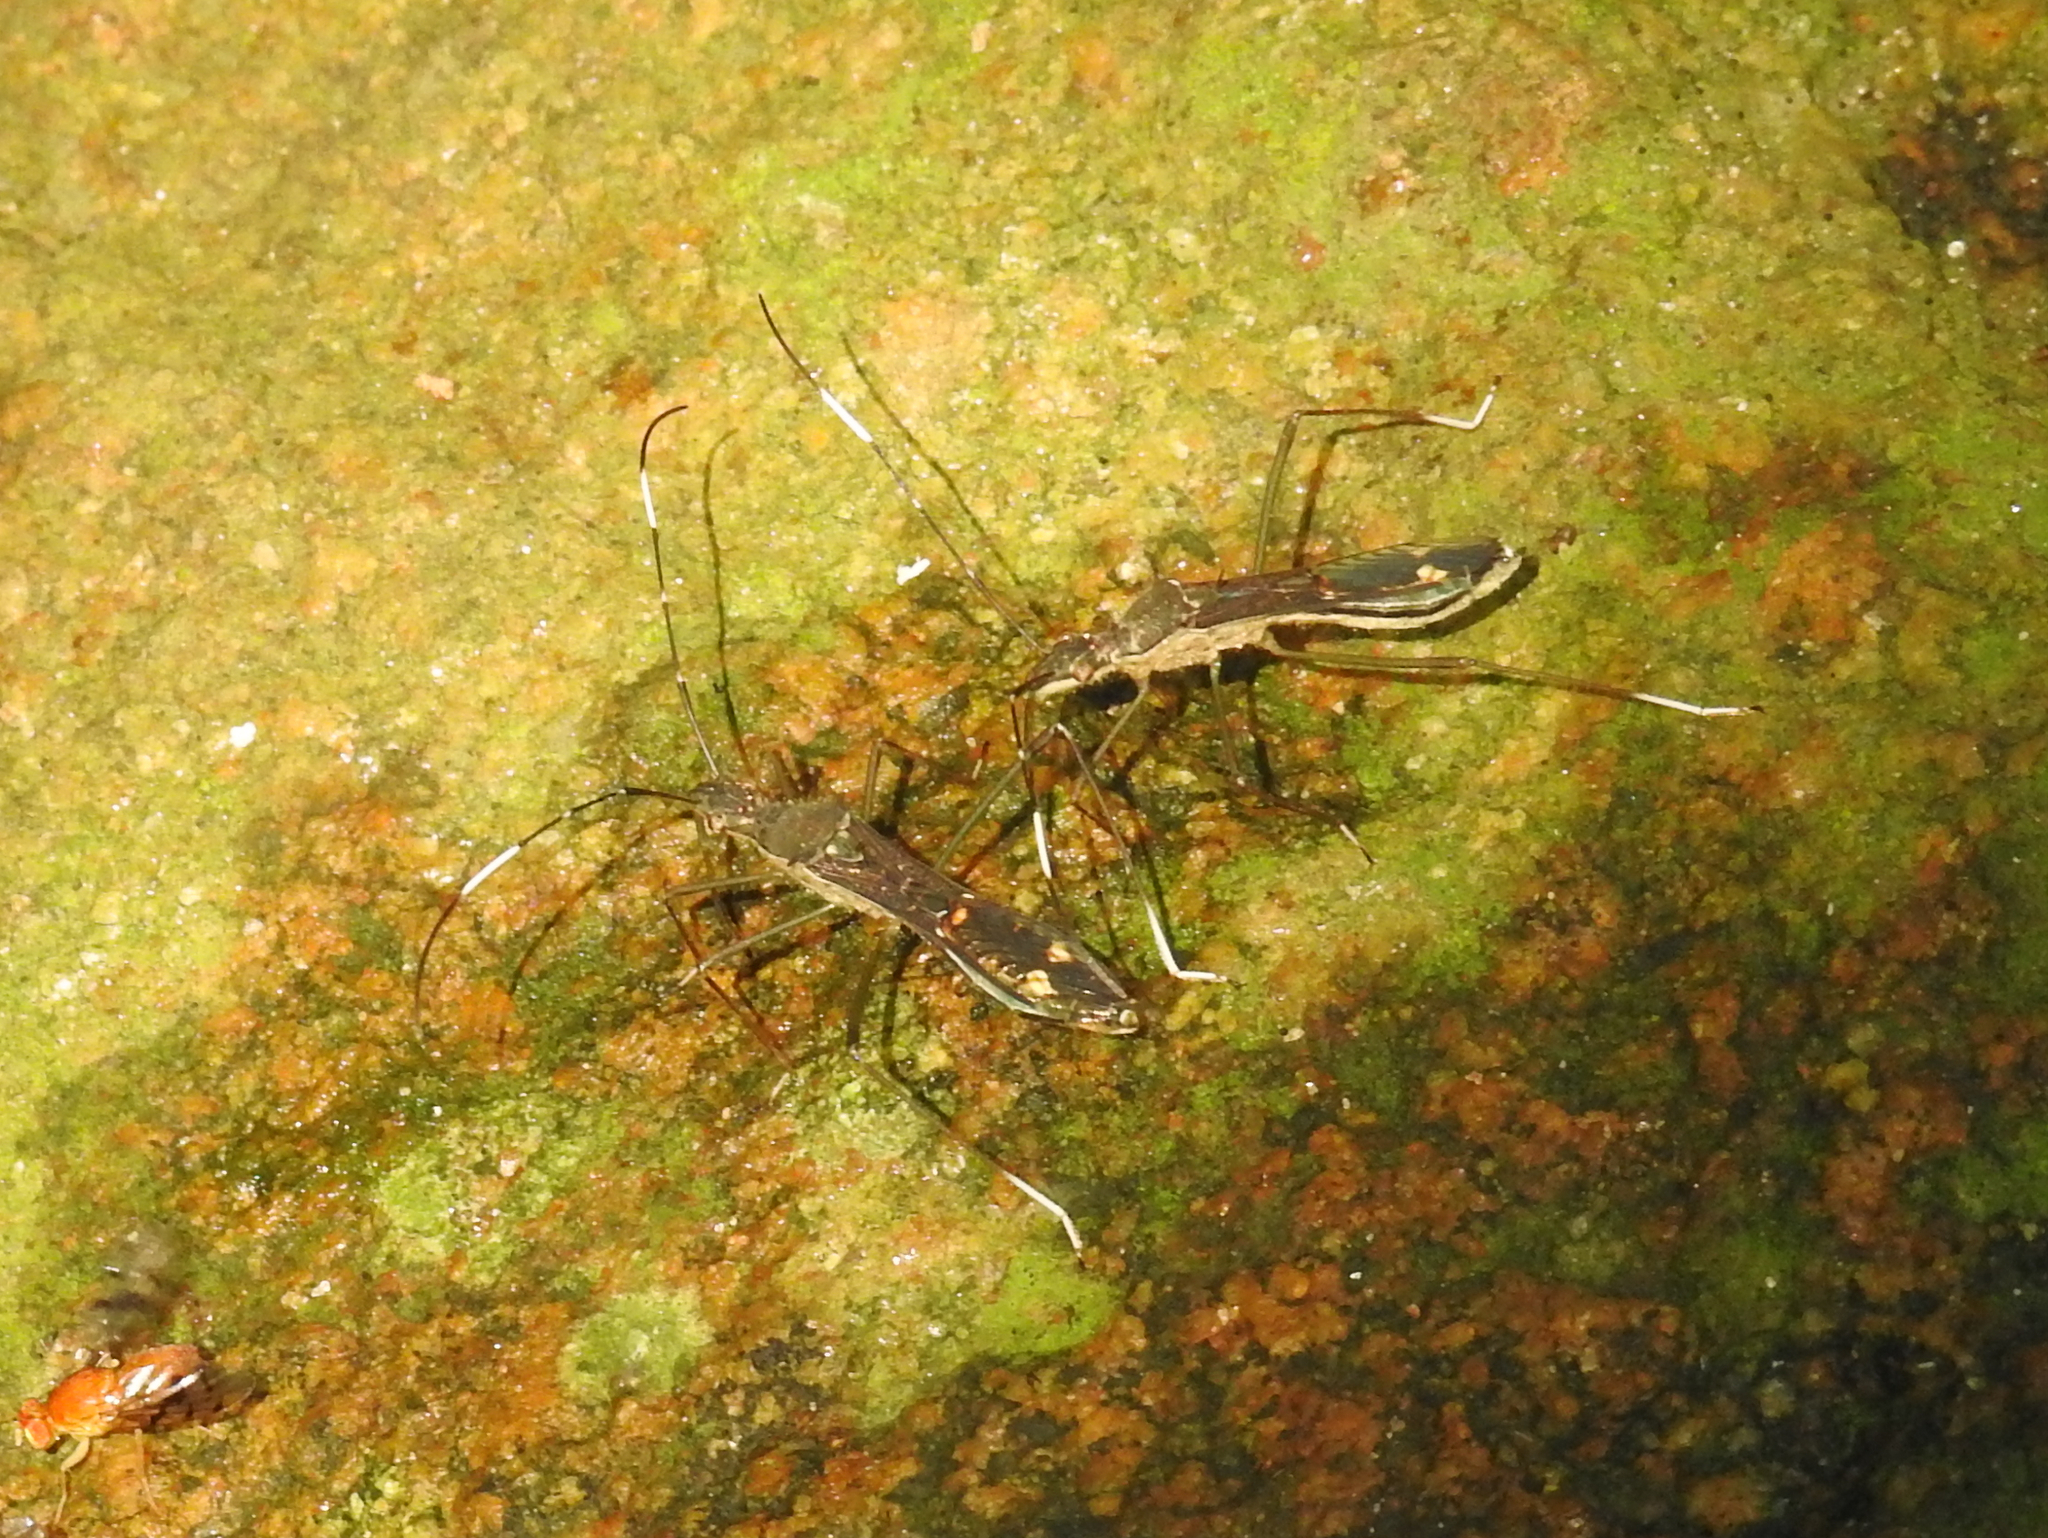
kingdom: Animalia
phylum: Arthropoda
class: Insecta
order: Hemiptera
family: Alydidae
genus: Marcius
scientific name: Marcius ornatulus
